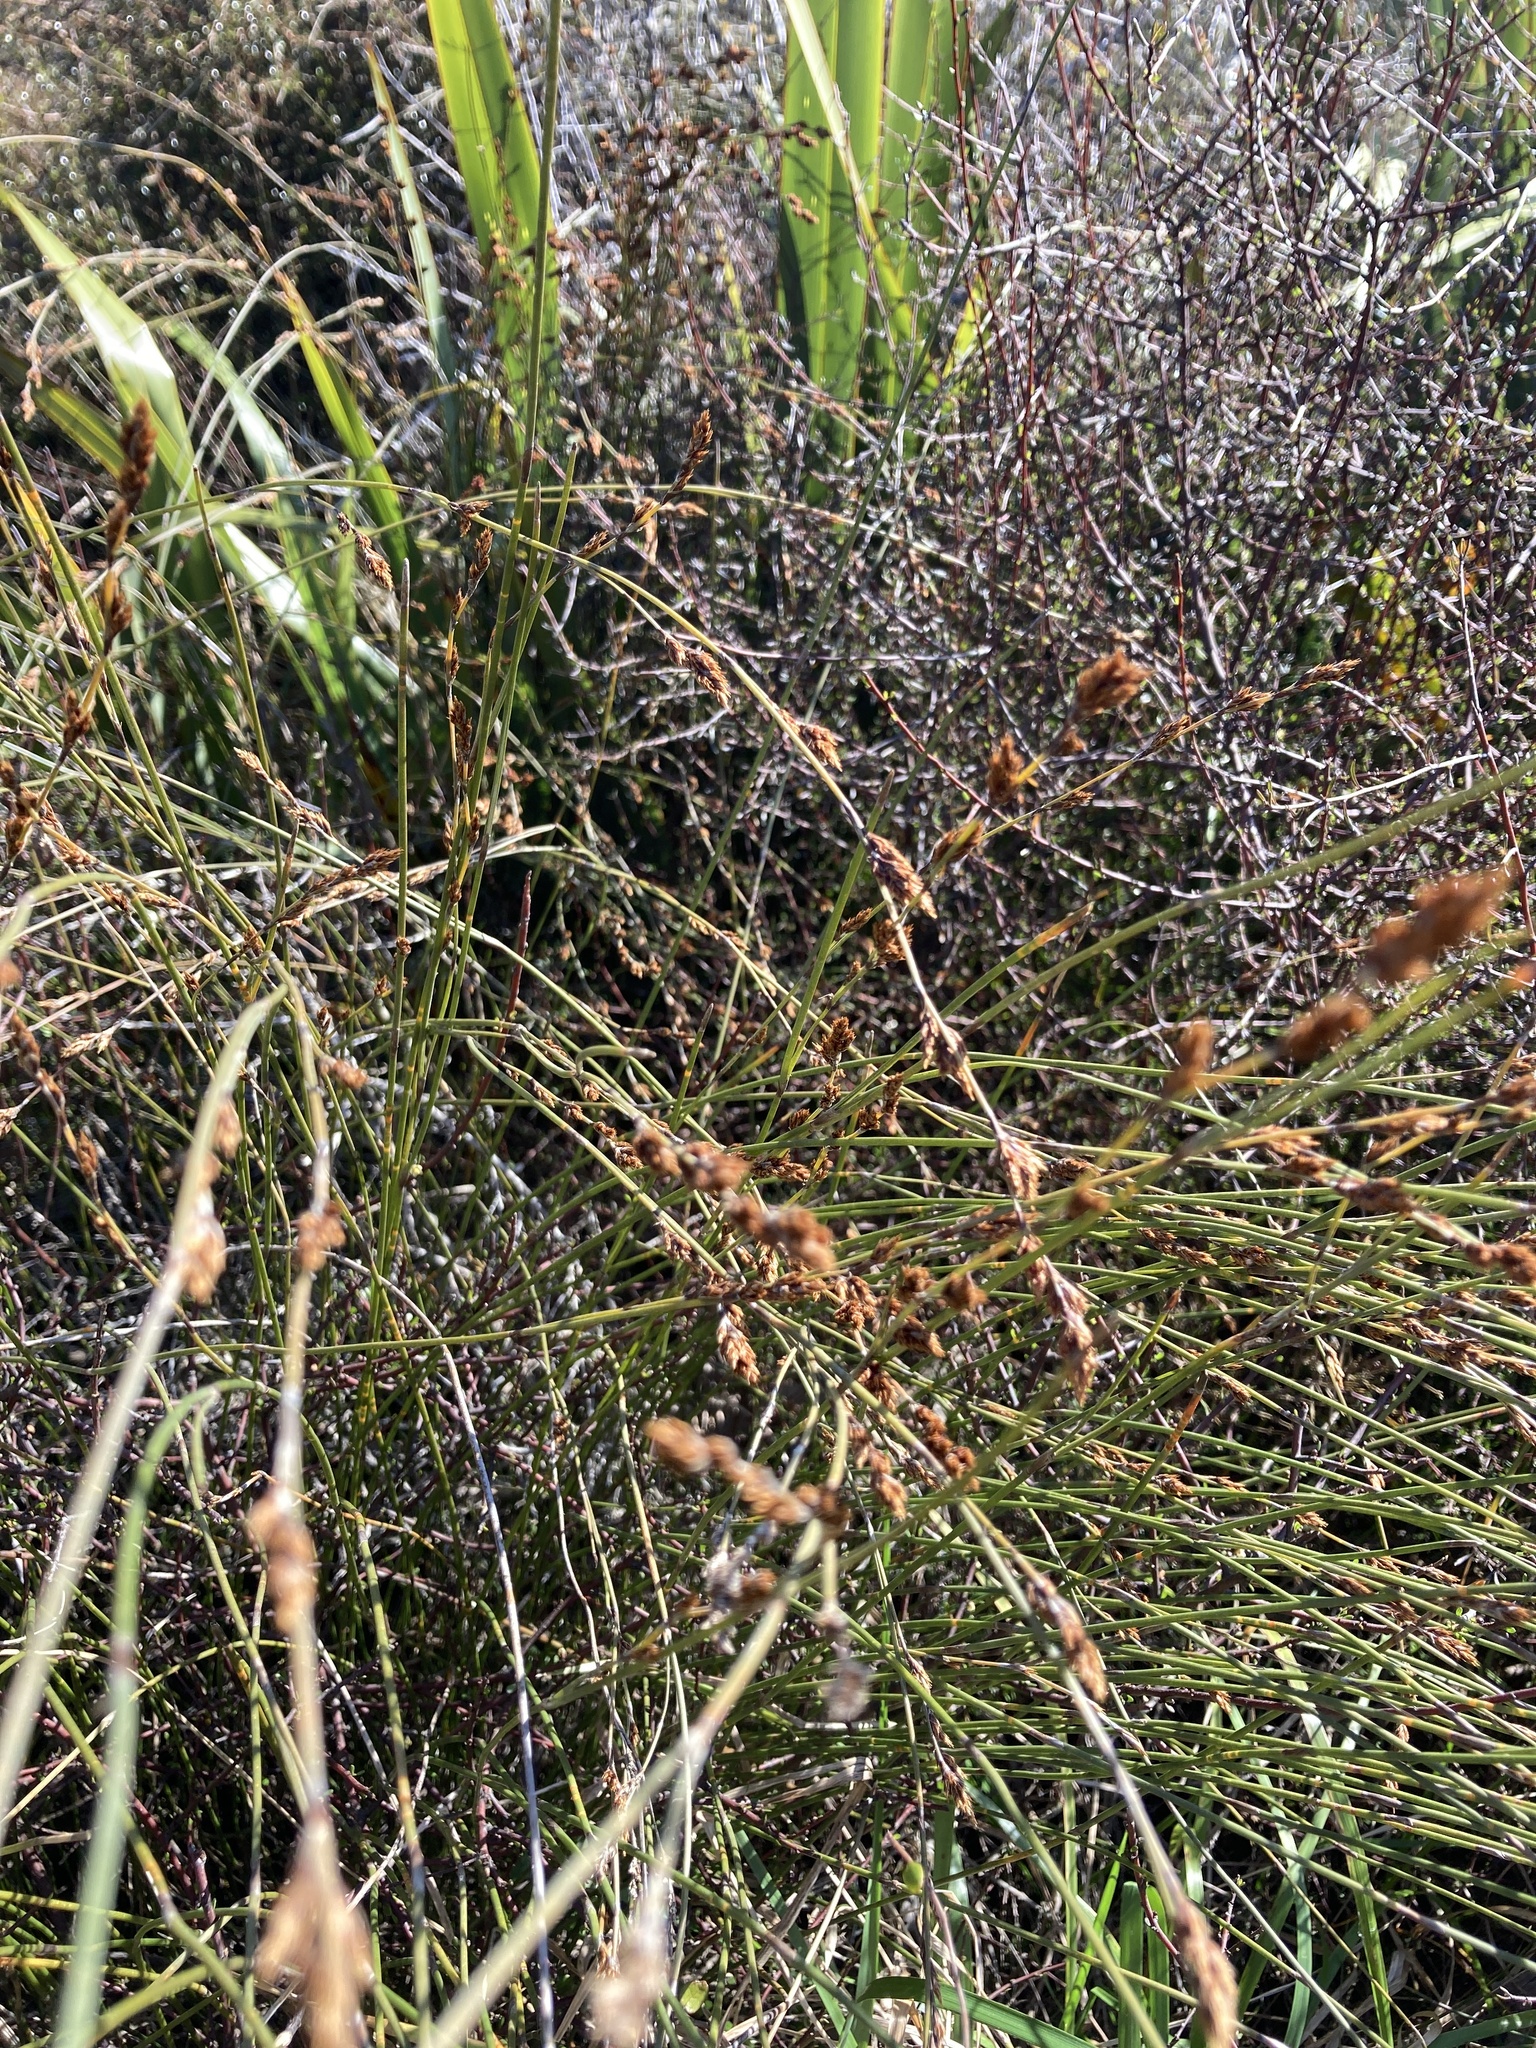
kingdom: Plantae
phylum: Tracheophyta
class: Liliopsida
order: Poales
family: Restionaceae
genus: Apodasmia
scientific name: Apodasmia similis
